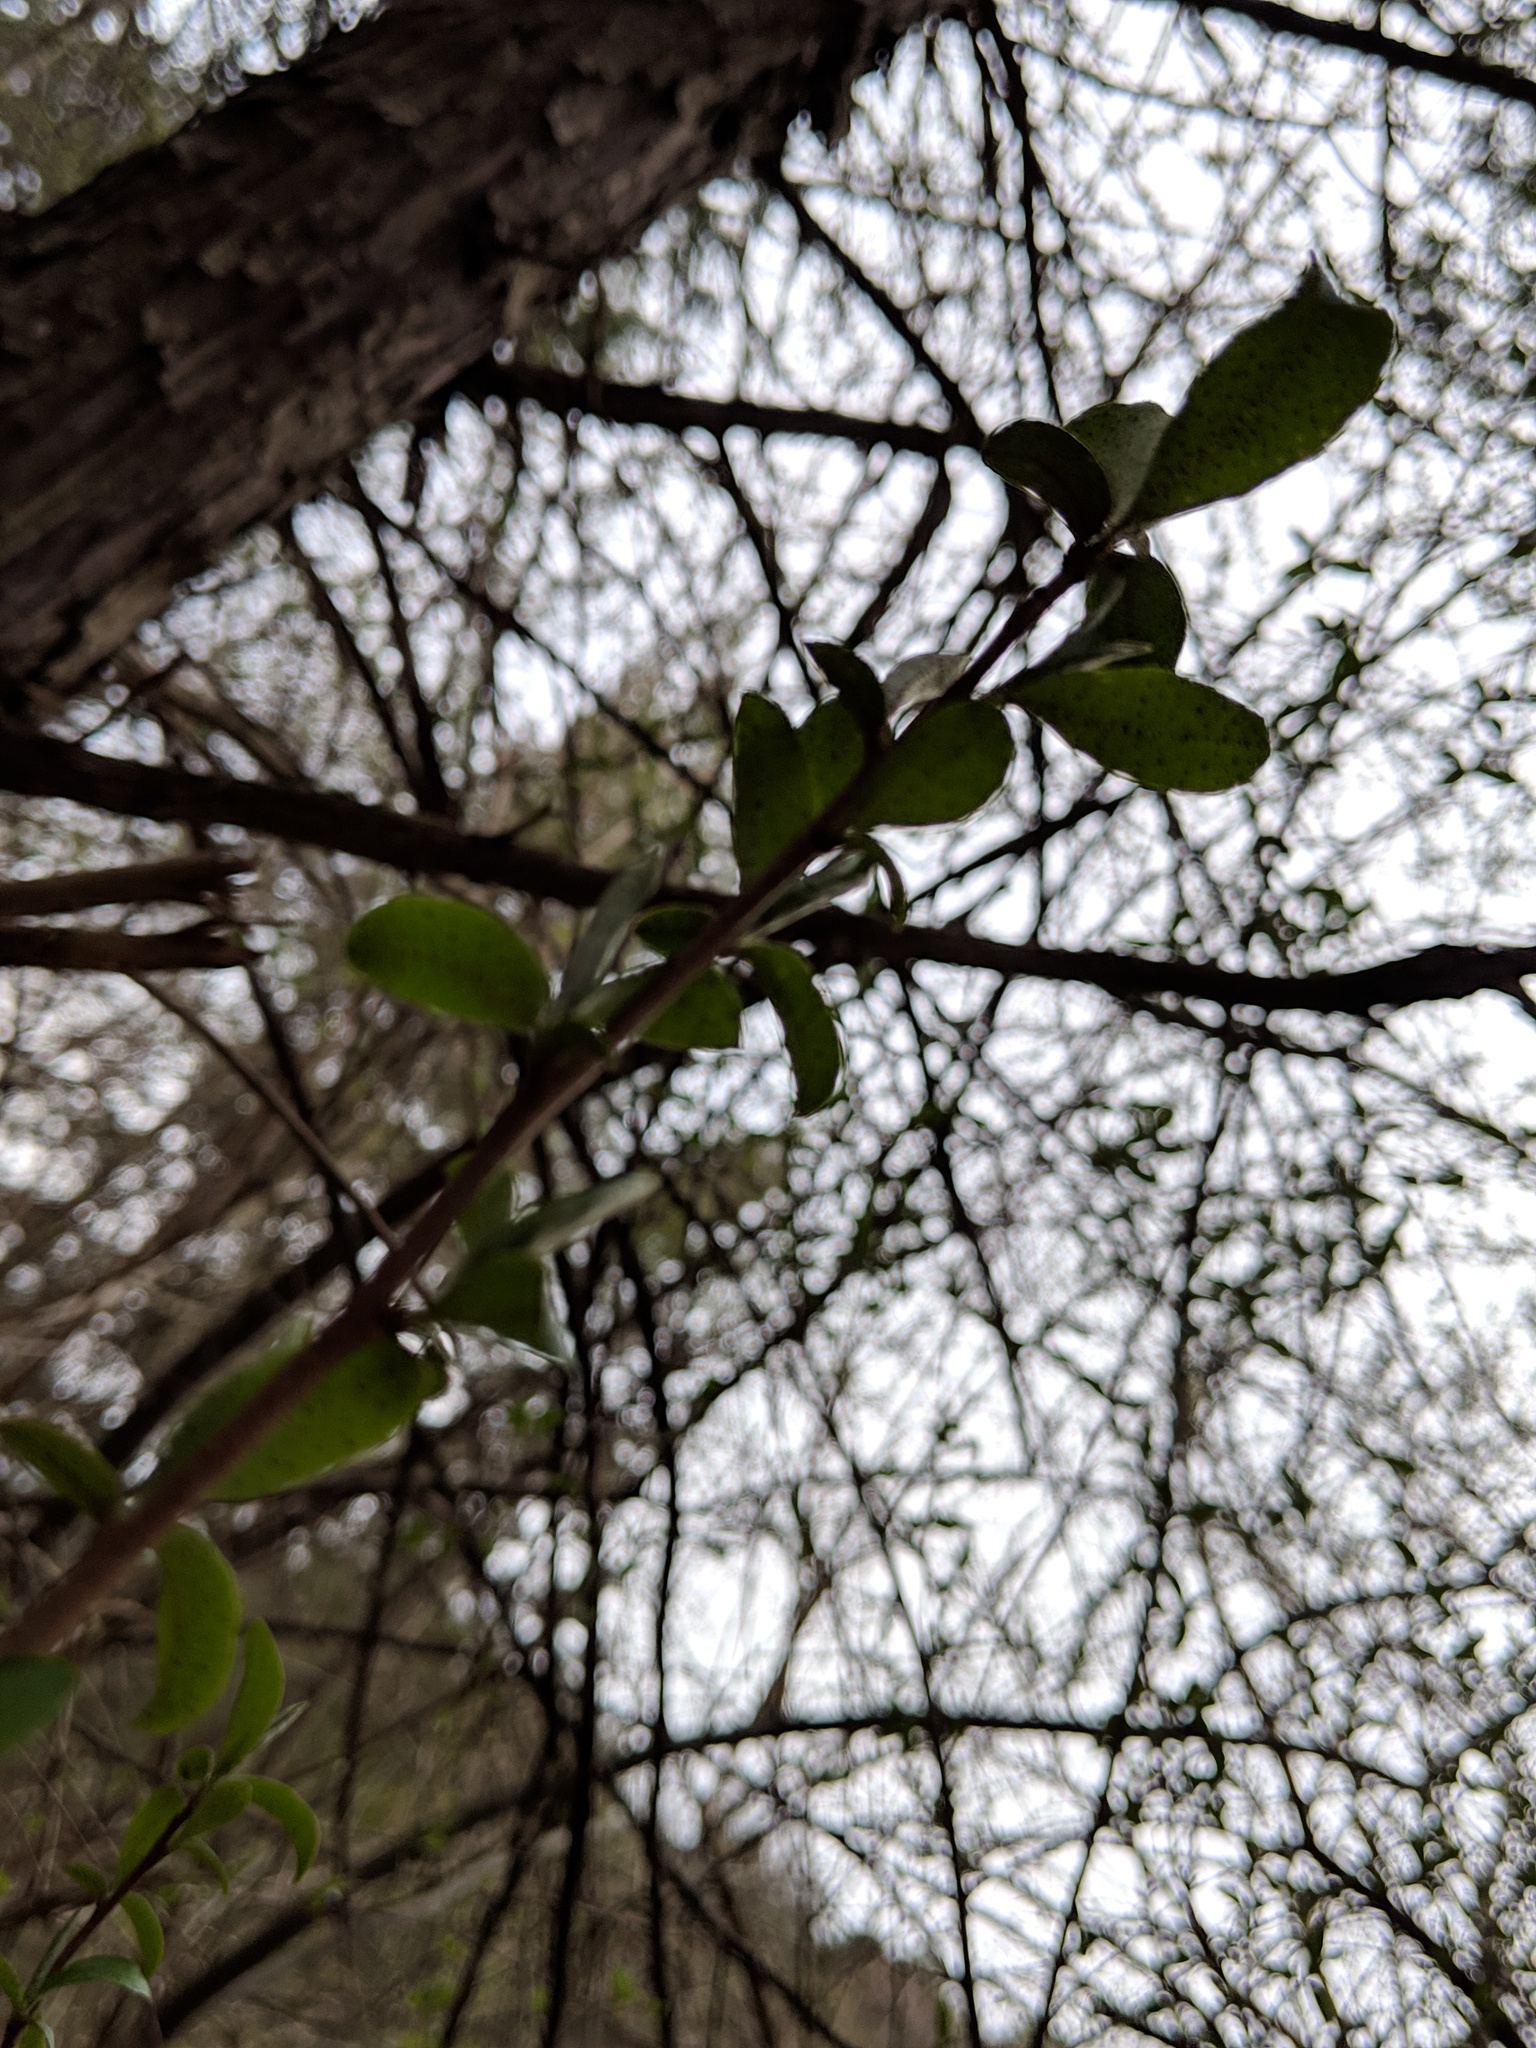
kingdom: Plantae
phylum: Tracheophyta
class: Magnoliopsida
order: Rosales
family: Elaeagnaceae
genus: Elaeagnus
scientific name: Elaeagnus umbellata
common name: Autumn olive
